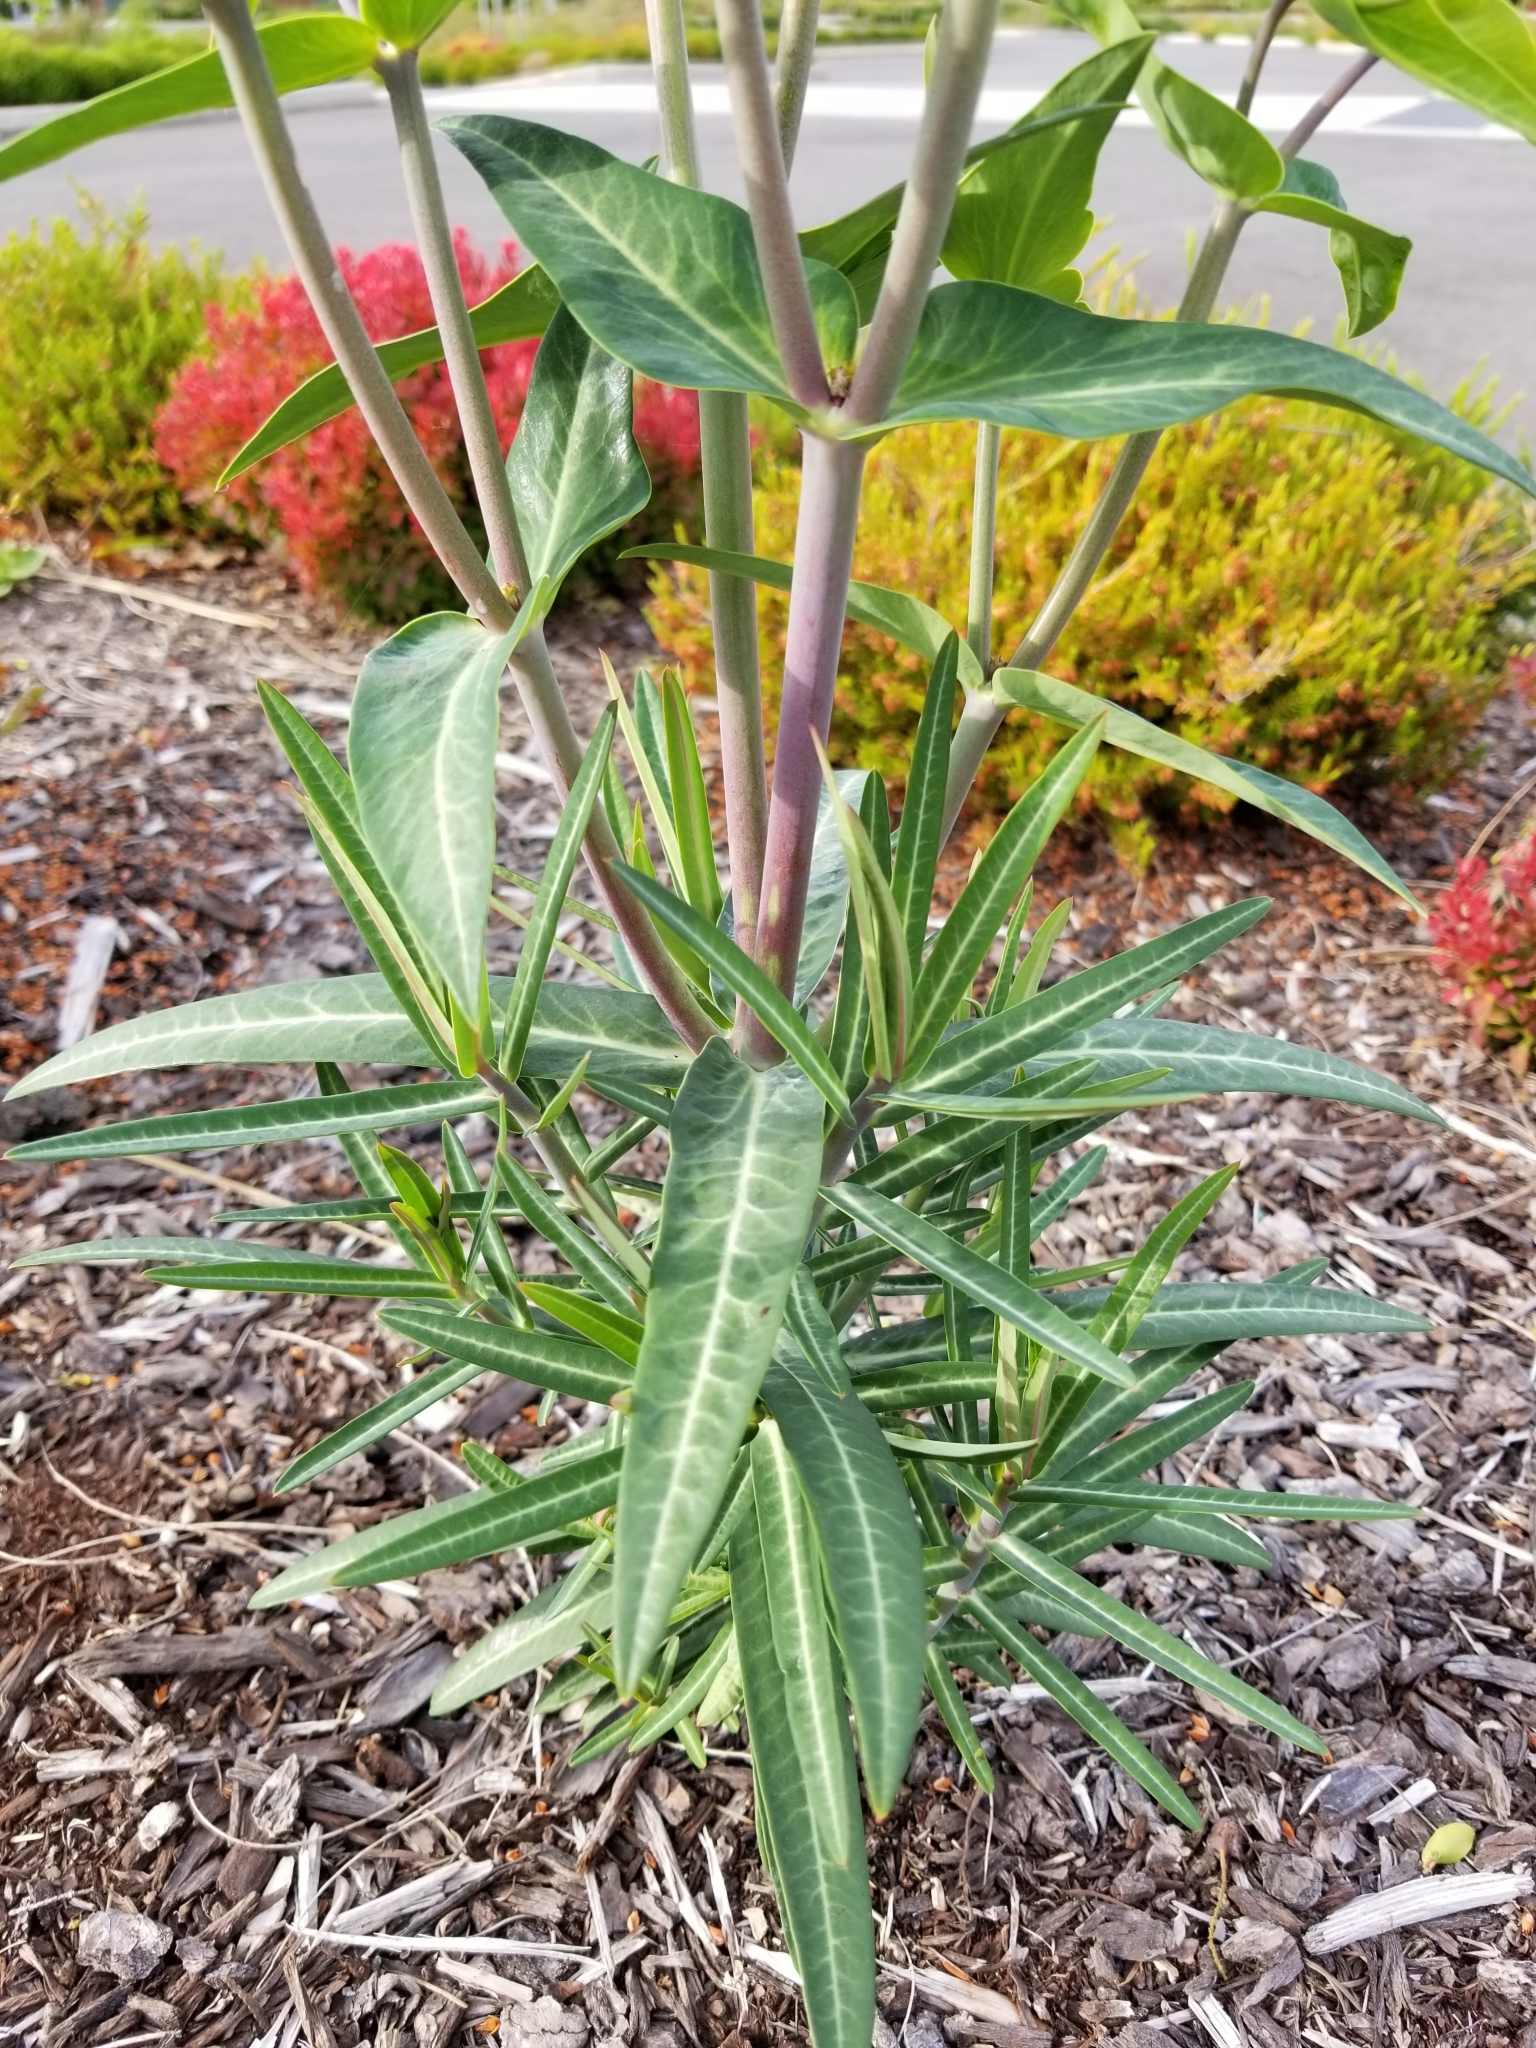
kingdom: Plantae
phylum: Tracheophyta
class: Magnoliopsida
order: Malpighiales
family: Euphorbiaceae
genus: Euphorbia
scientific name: Euphorbia lathyris
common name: Caper spurge
